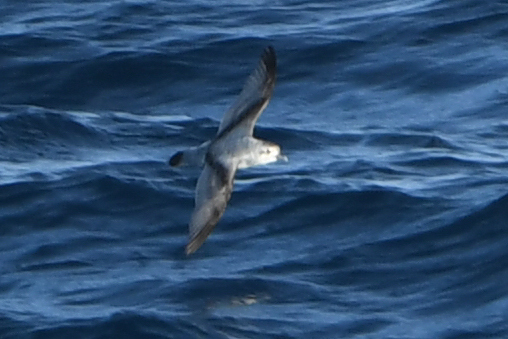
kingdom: Animalia
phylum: Chordata
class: Aves
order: Procellariiformes
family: Procellariidae
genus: Pachyptila
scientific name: Pachyptila turtur
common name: Fairy prion
